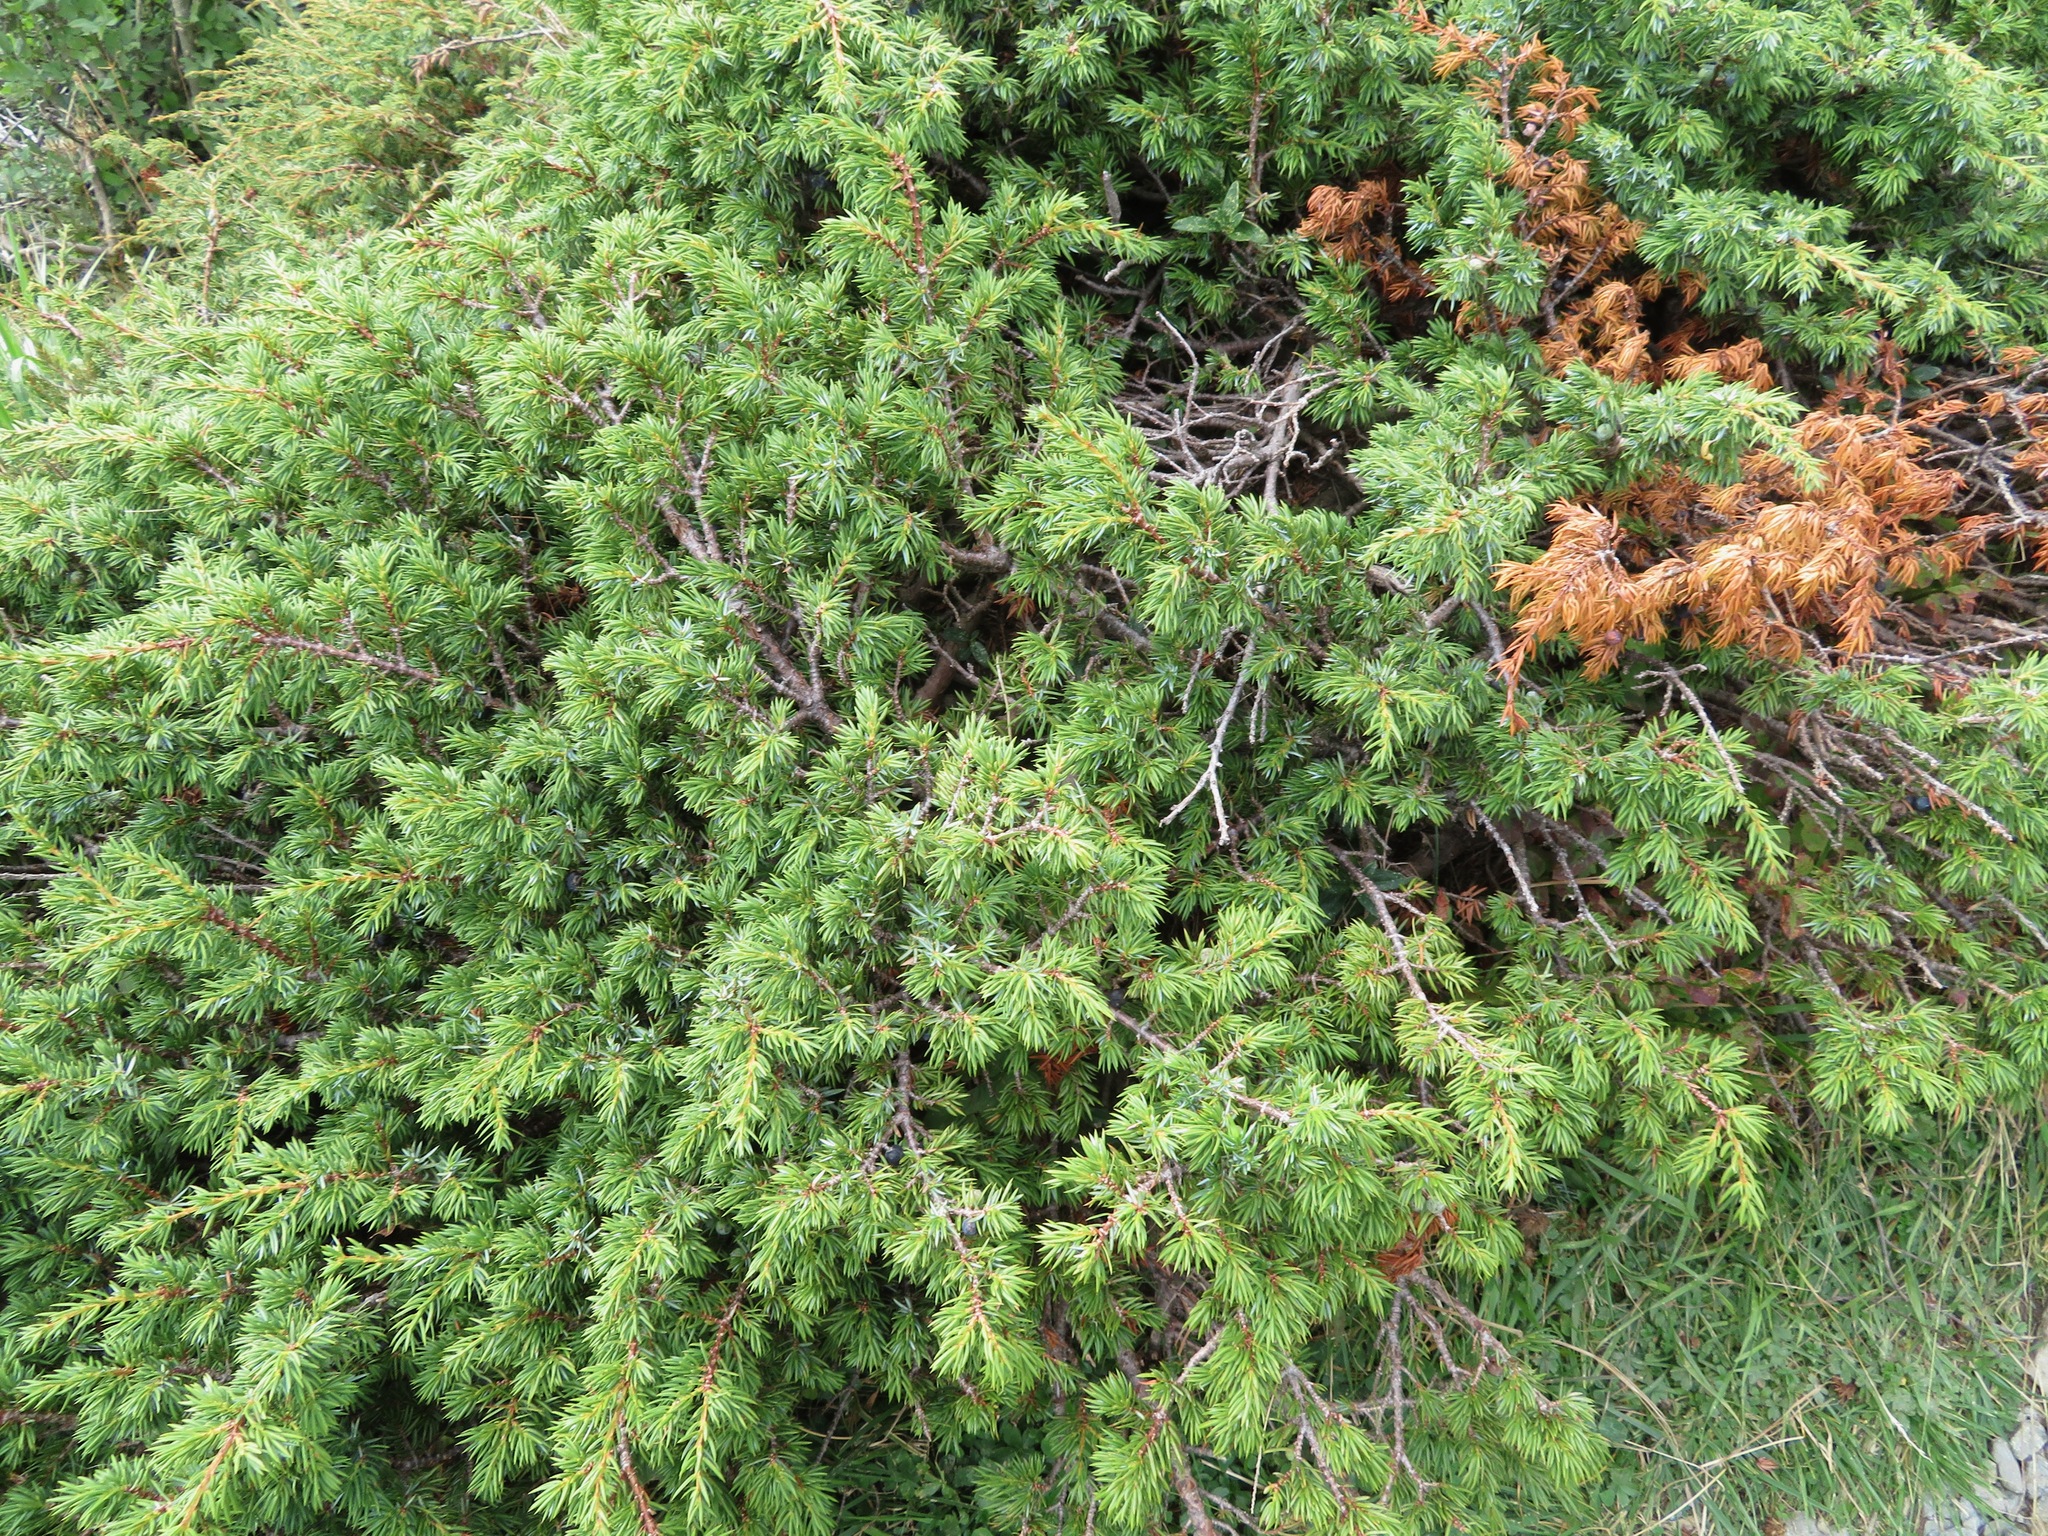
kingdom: Plantae
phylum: Tracheophyta
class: Pinopsida
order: Pinales
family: Cupressaceae
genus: Juniperus
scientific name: Juniperus communis
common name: Common juniper
